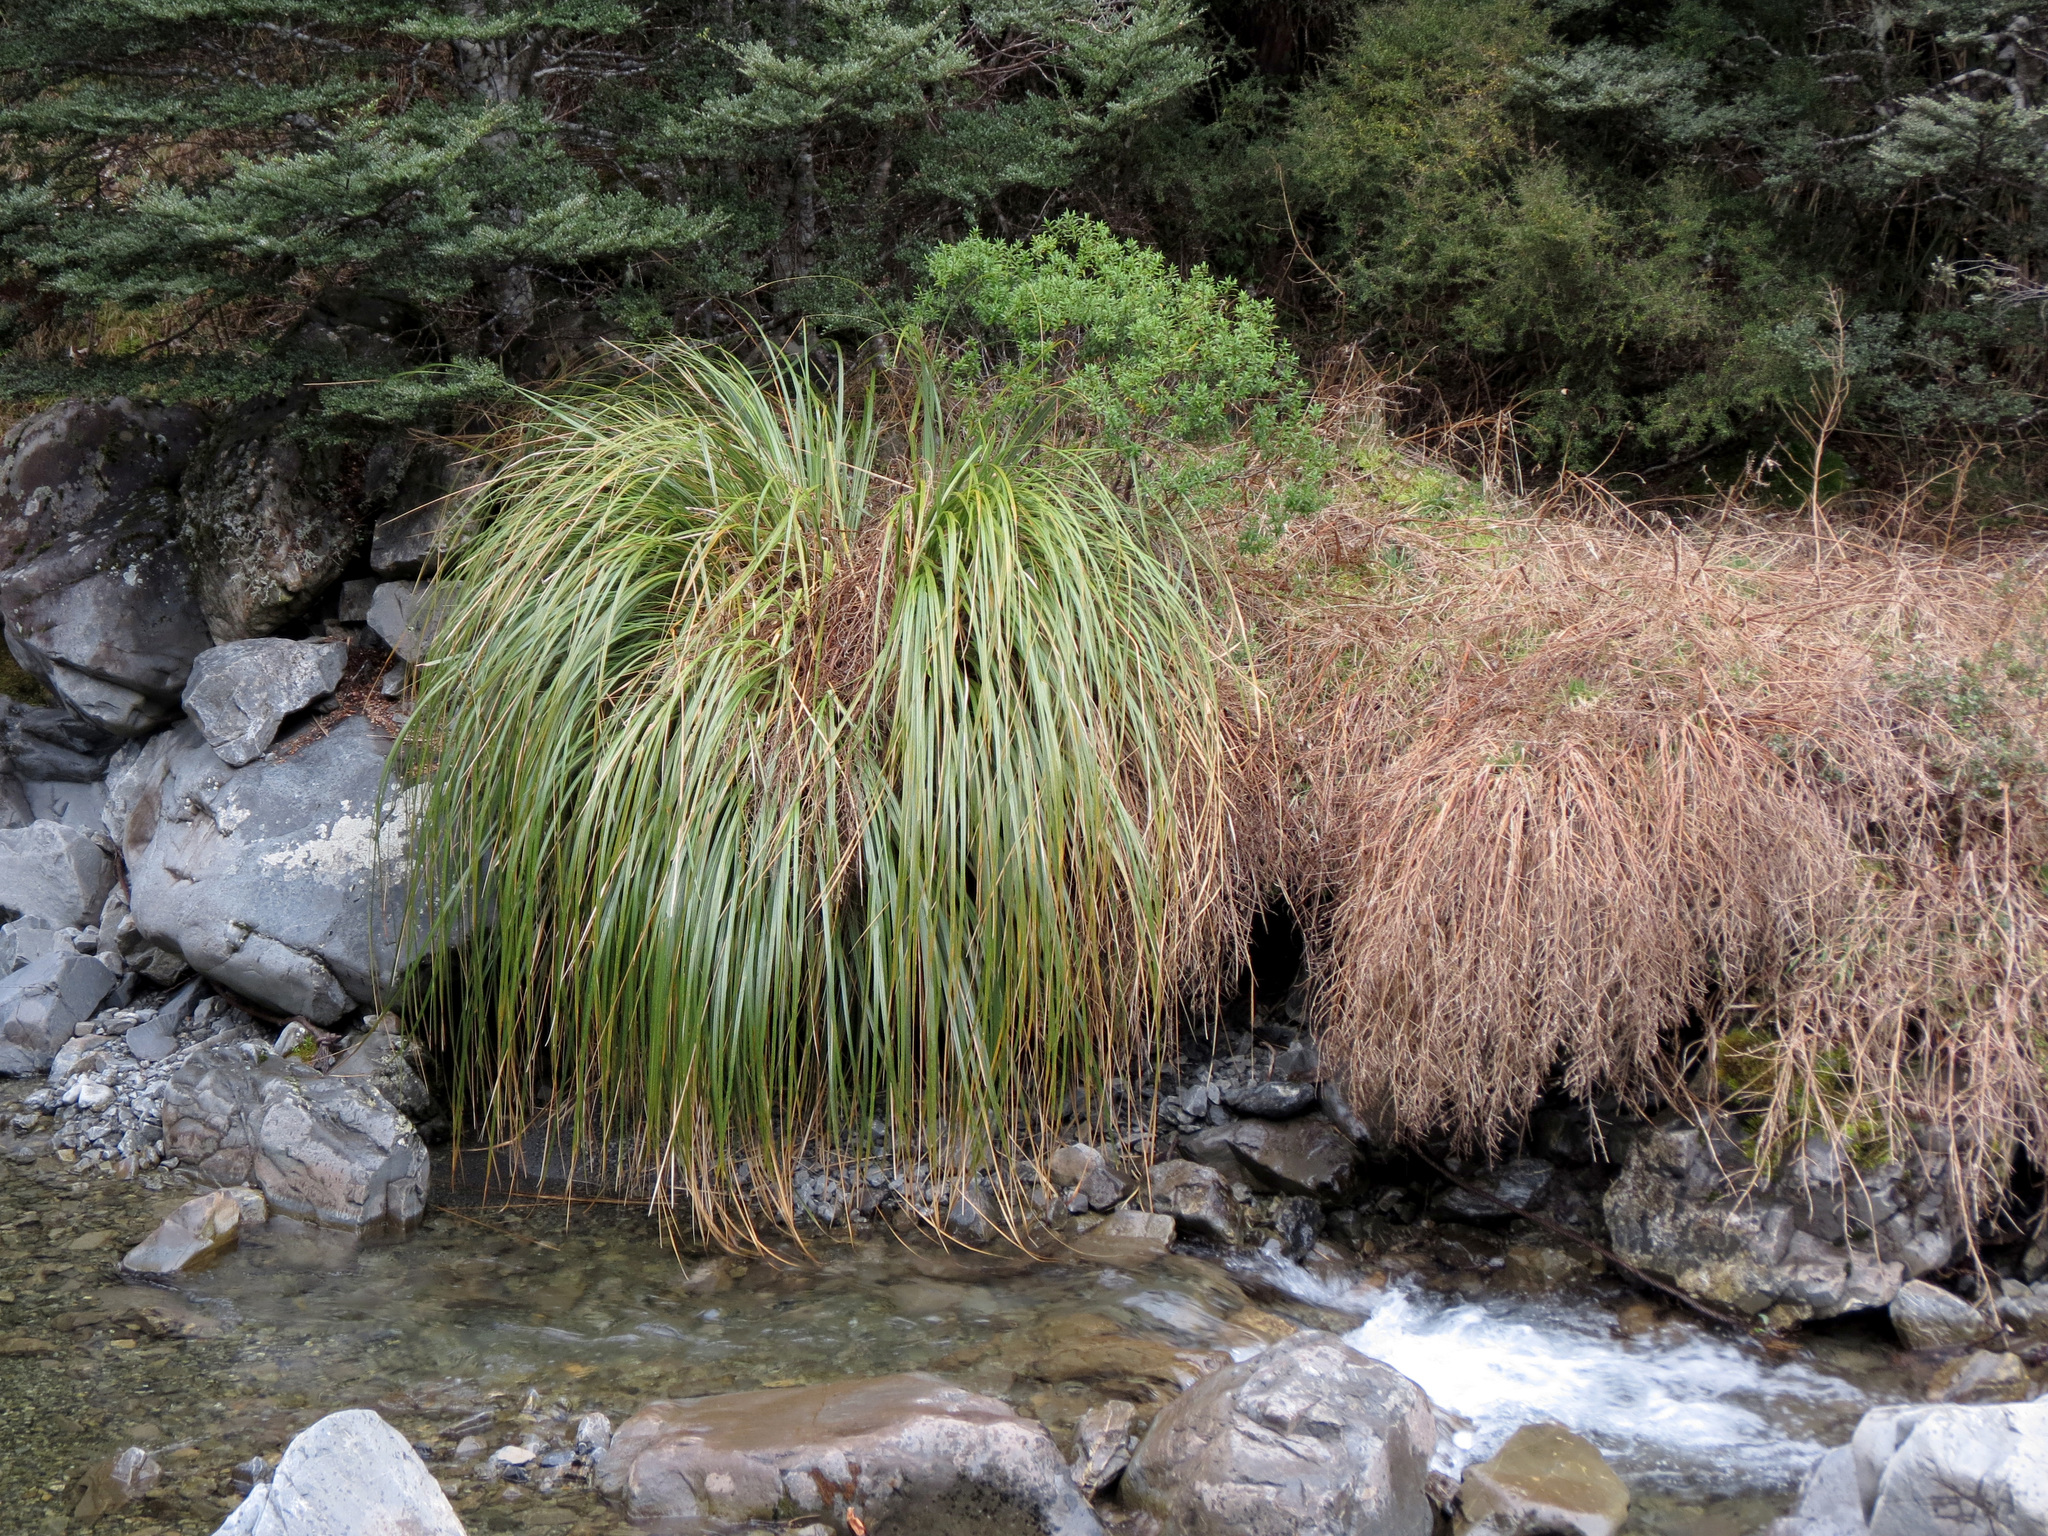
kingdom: Plantae
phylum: Tracheophyta
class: Liliopsida
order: Poales
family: Poaceae
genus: Austroderia
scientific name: Austroderia richardii
